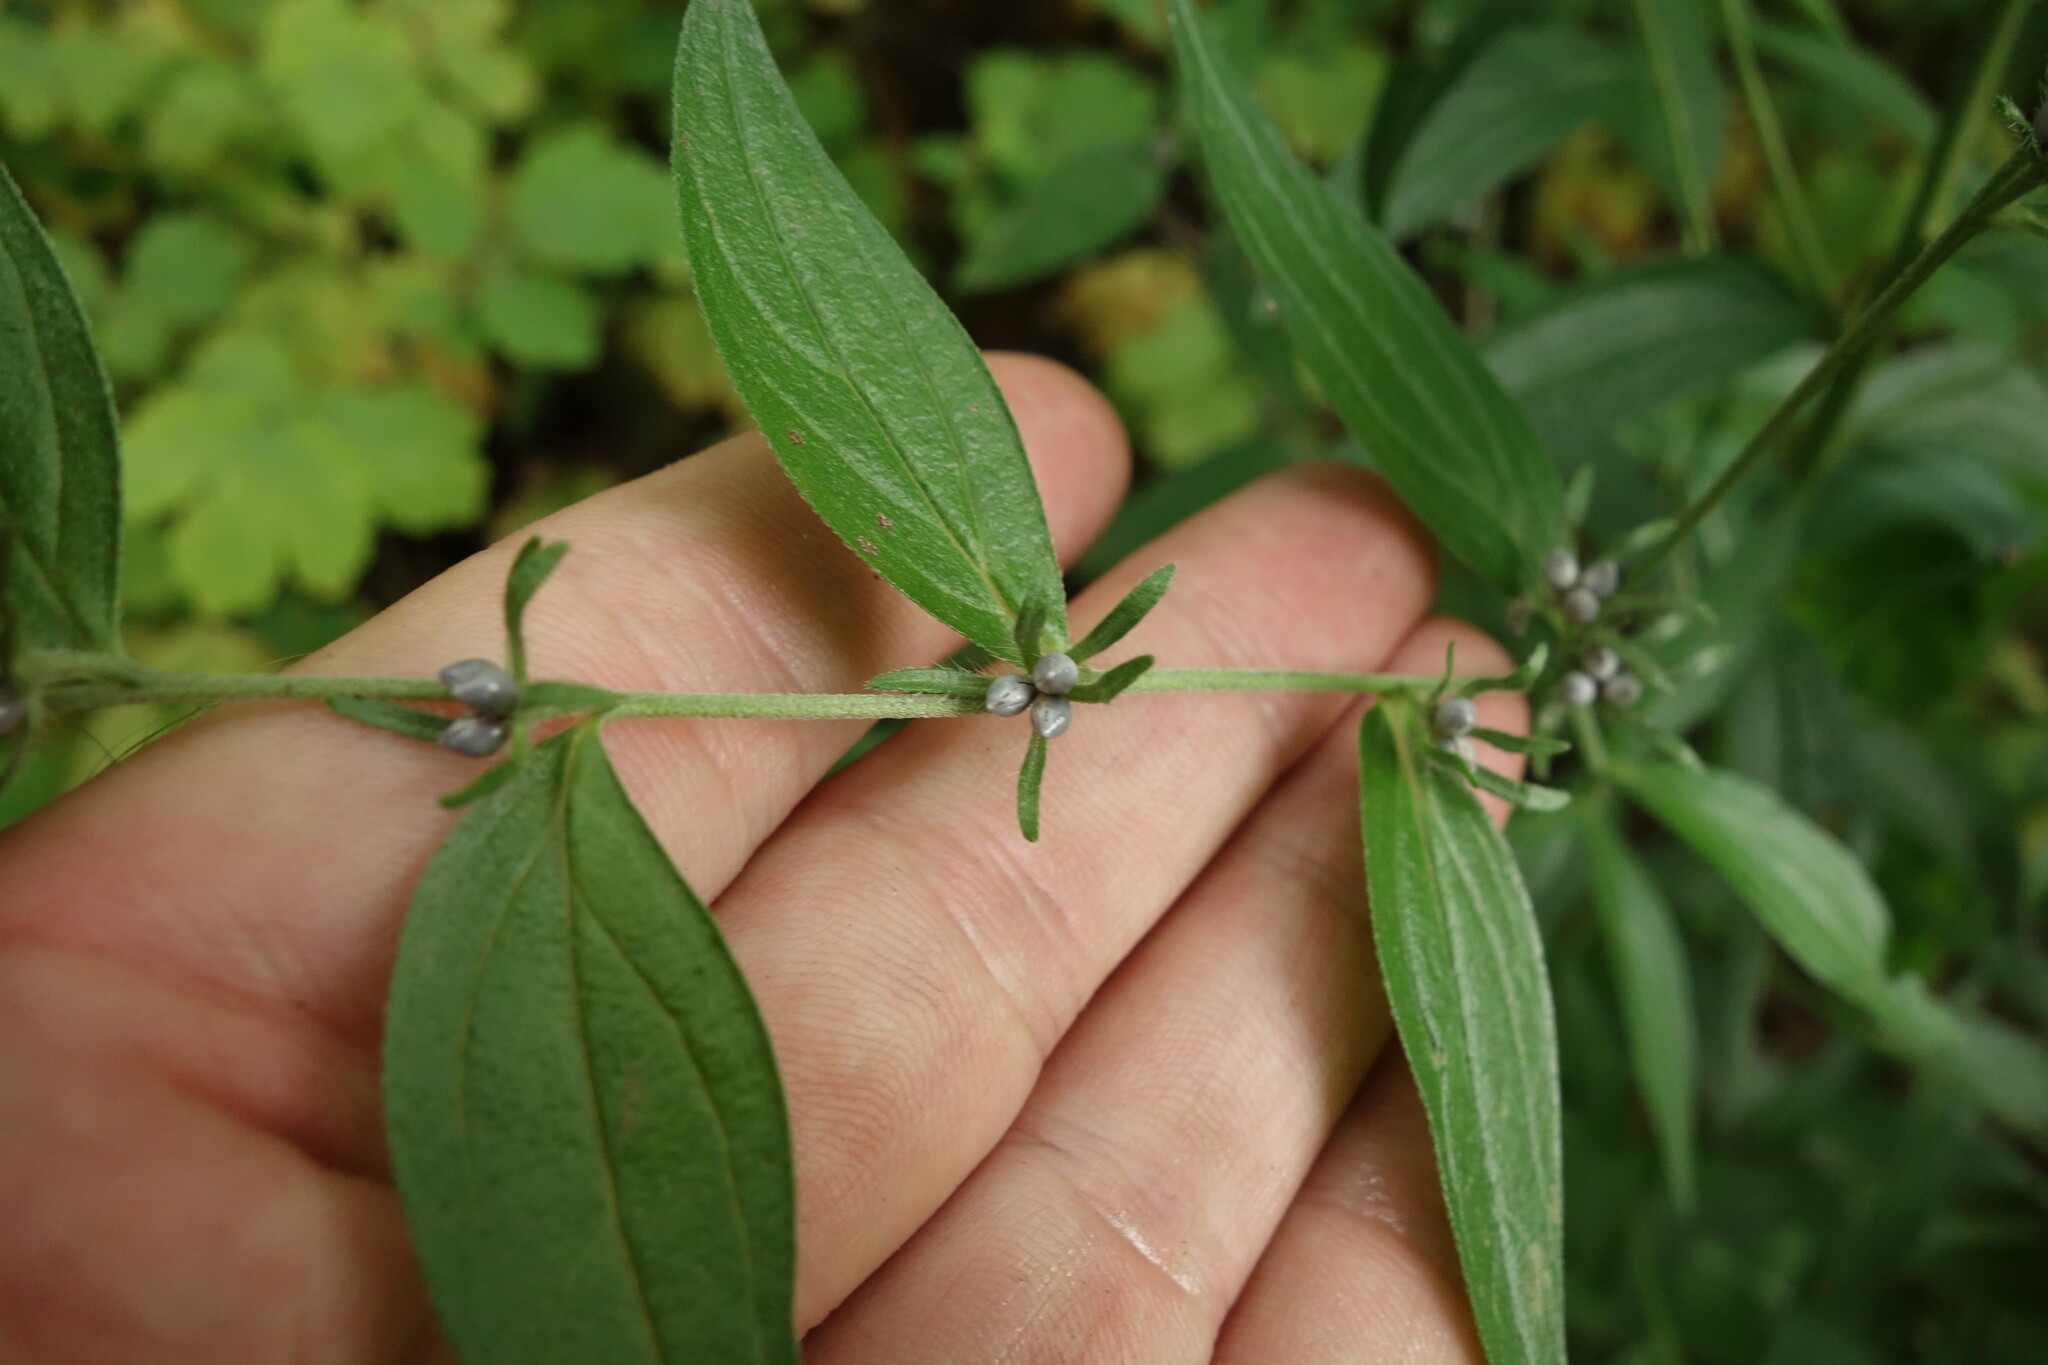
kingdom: Plantae
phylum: Tracheophyta
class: Magnoliopsida
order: Boraginales
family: Boraginaceae
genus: Lithospermum
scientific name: Lithospermum officinale
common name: Common gromwell
